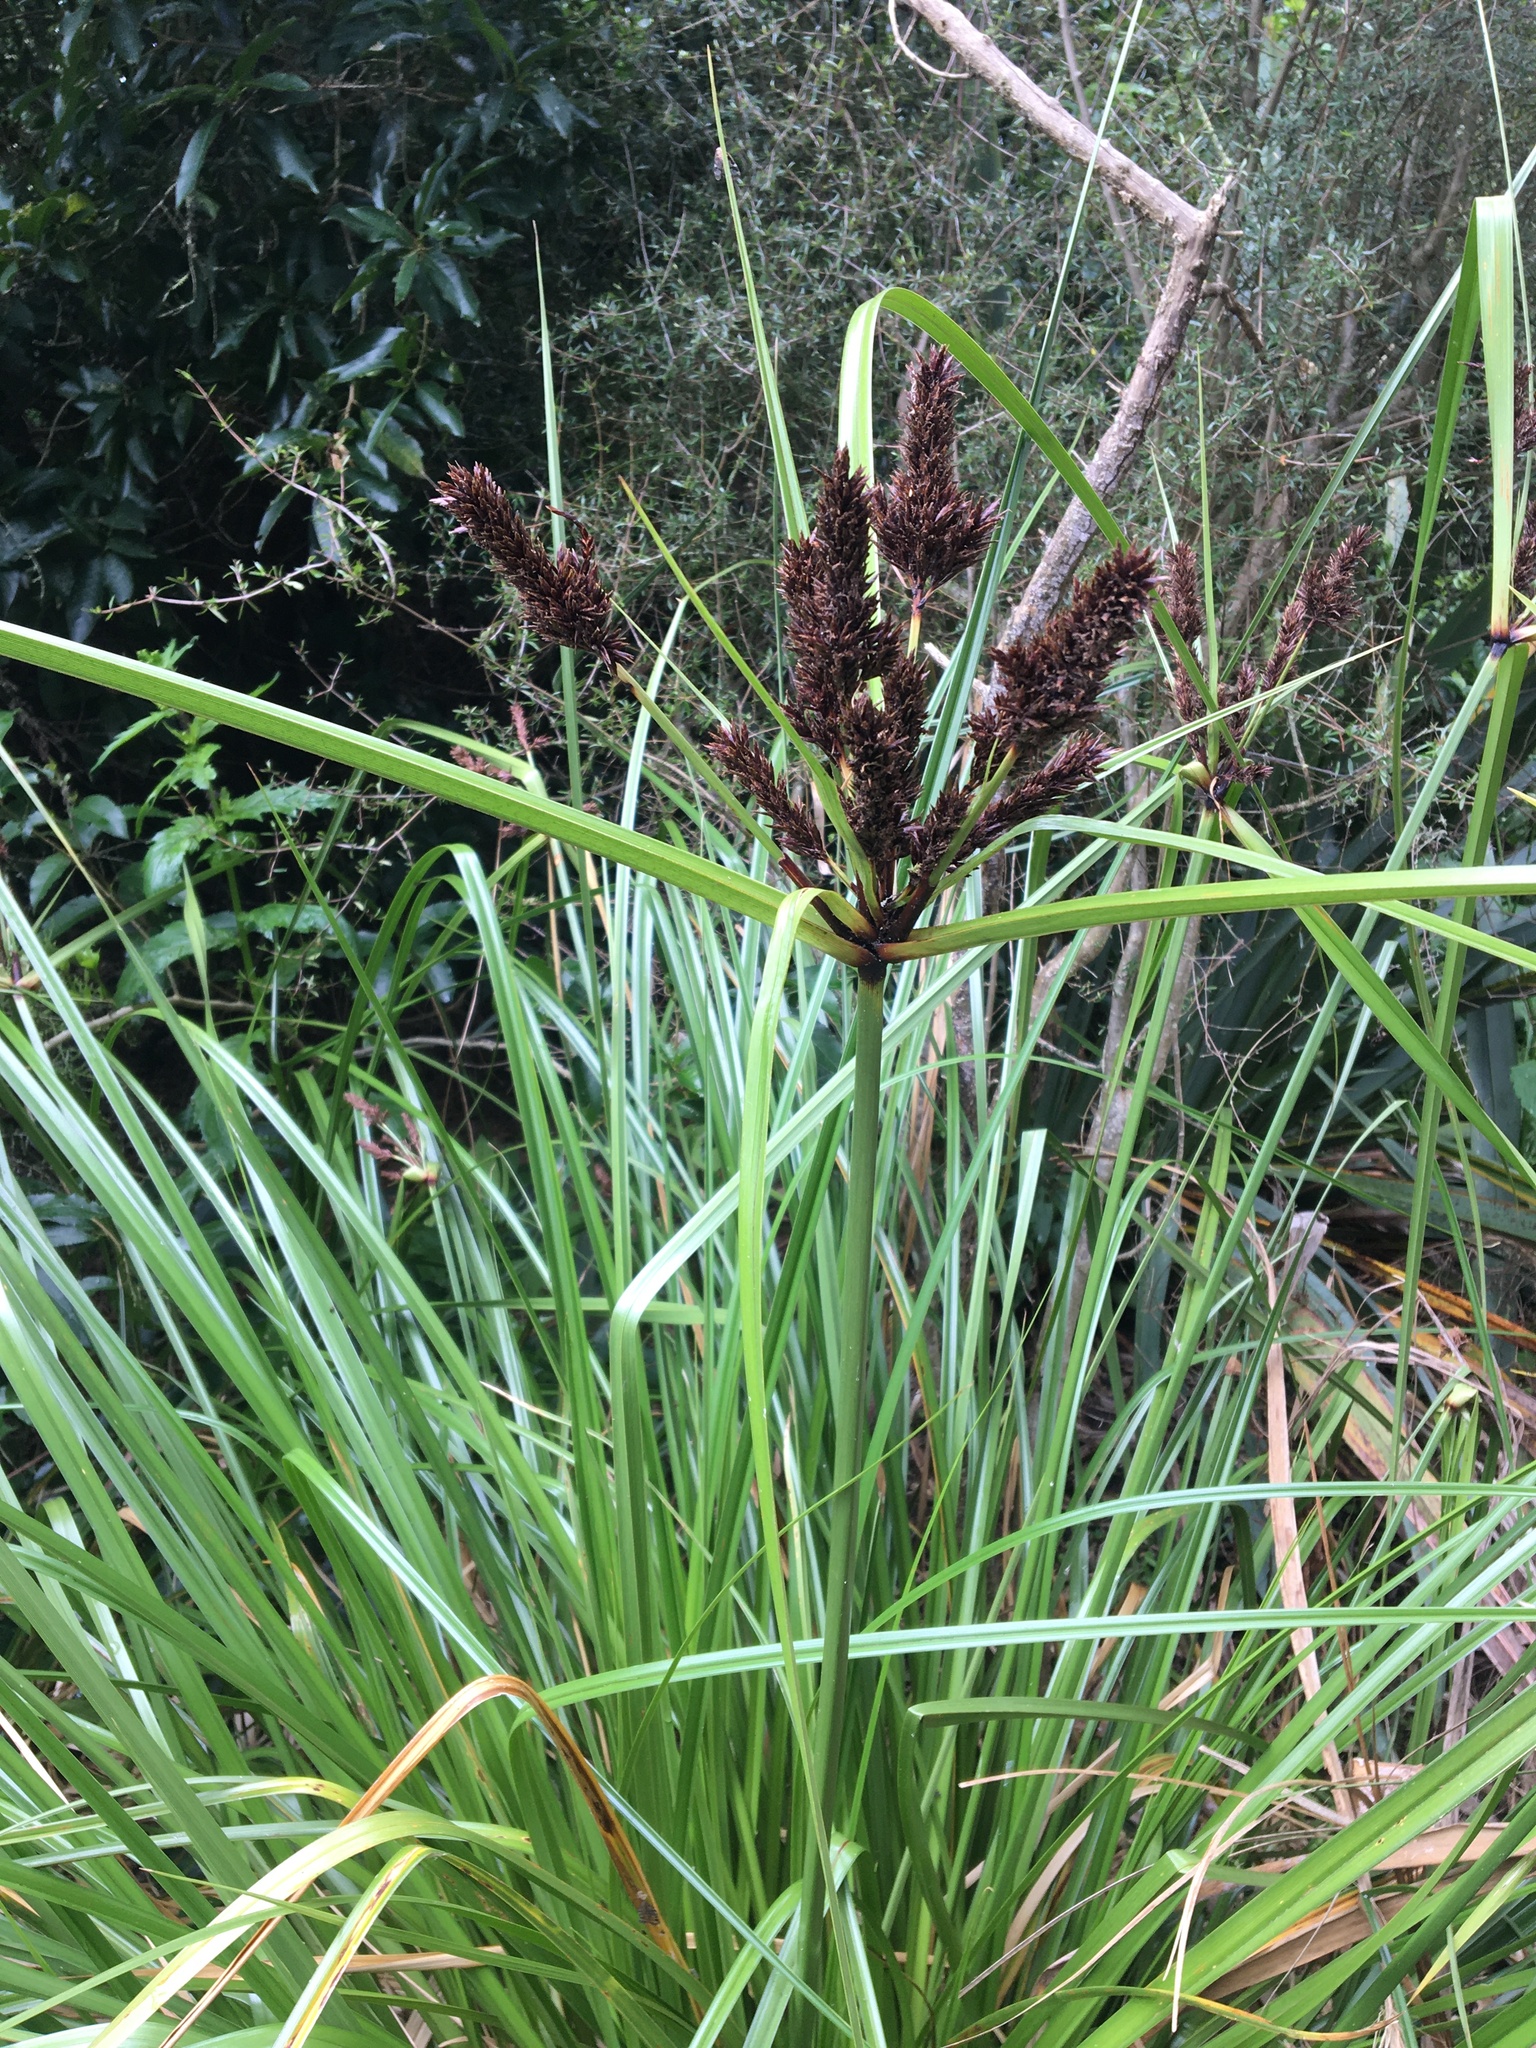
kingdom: Plantae
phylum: Tracheophyta
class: Liliopsida
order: Poales
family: Cyperaceae
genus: Cyperus
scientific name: Cyperus ustulatus
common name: Giant umbrella-sedge
